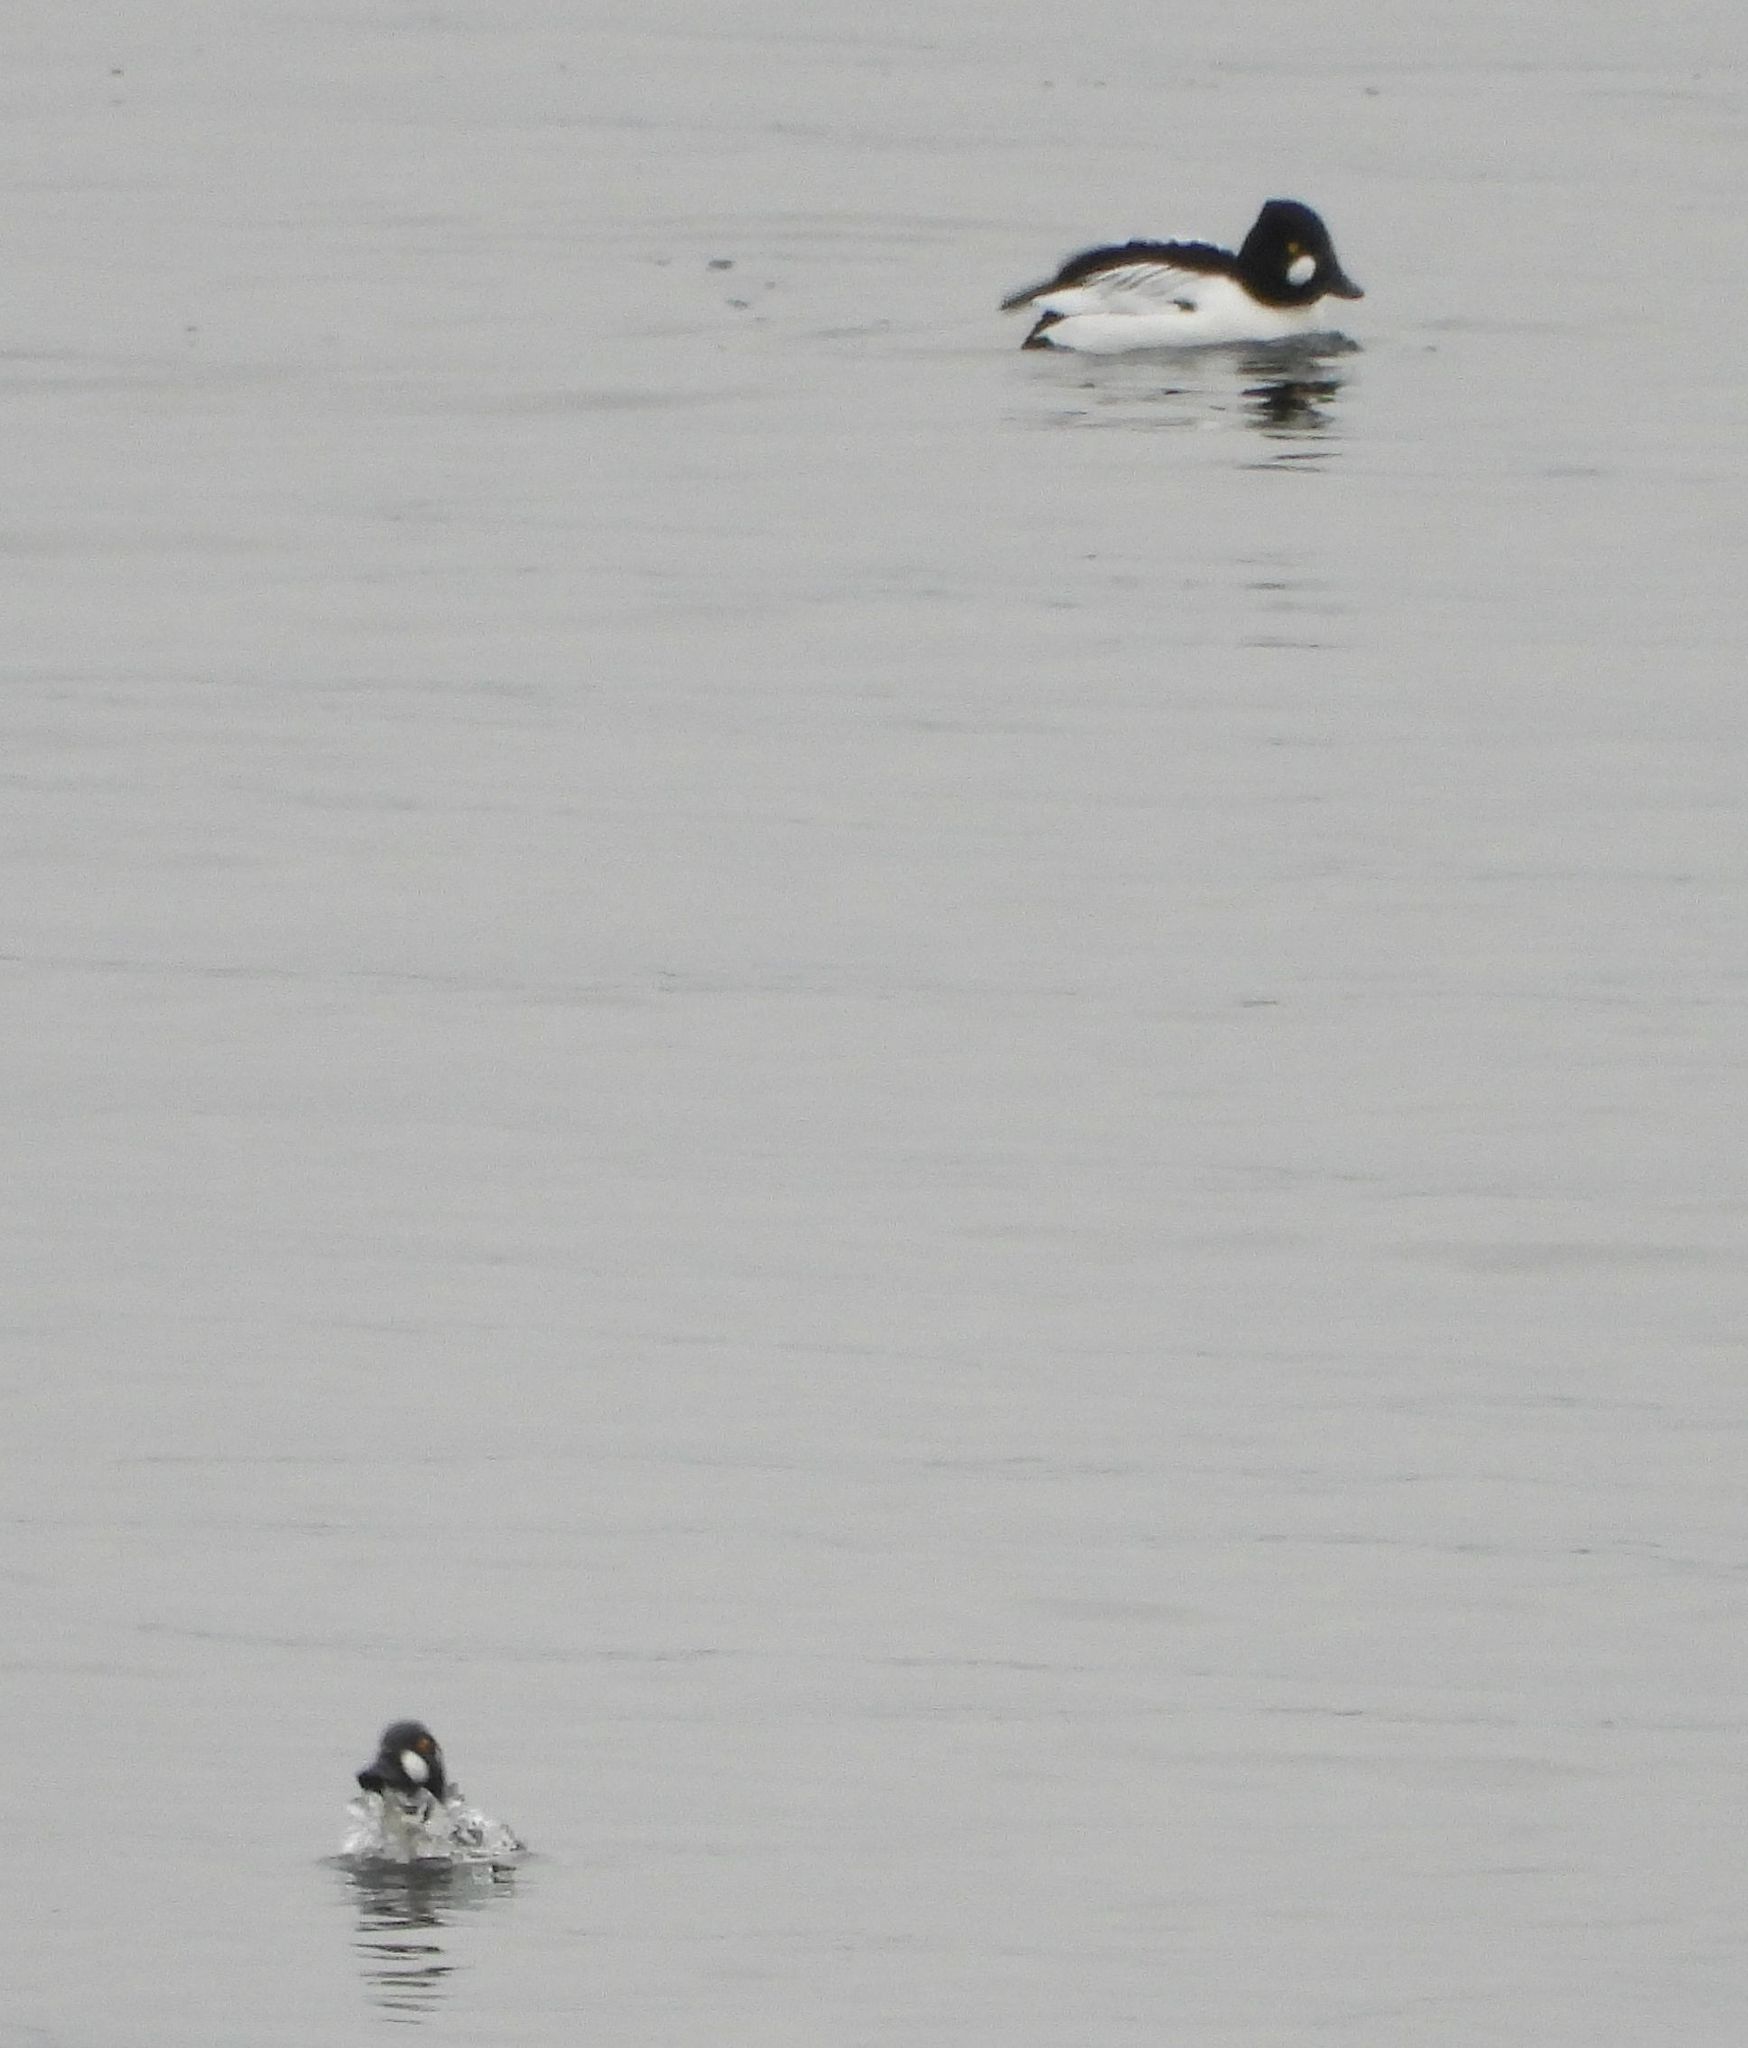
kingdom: Animalia
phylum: Chordata
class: Aves
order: Anseriformes
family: Anatidae
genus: Bucephala
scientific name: Bucephala clangula
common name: Common goldeneye
